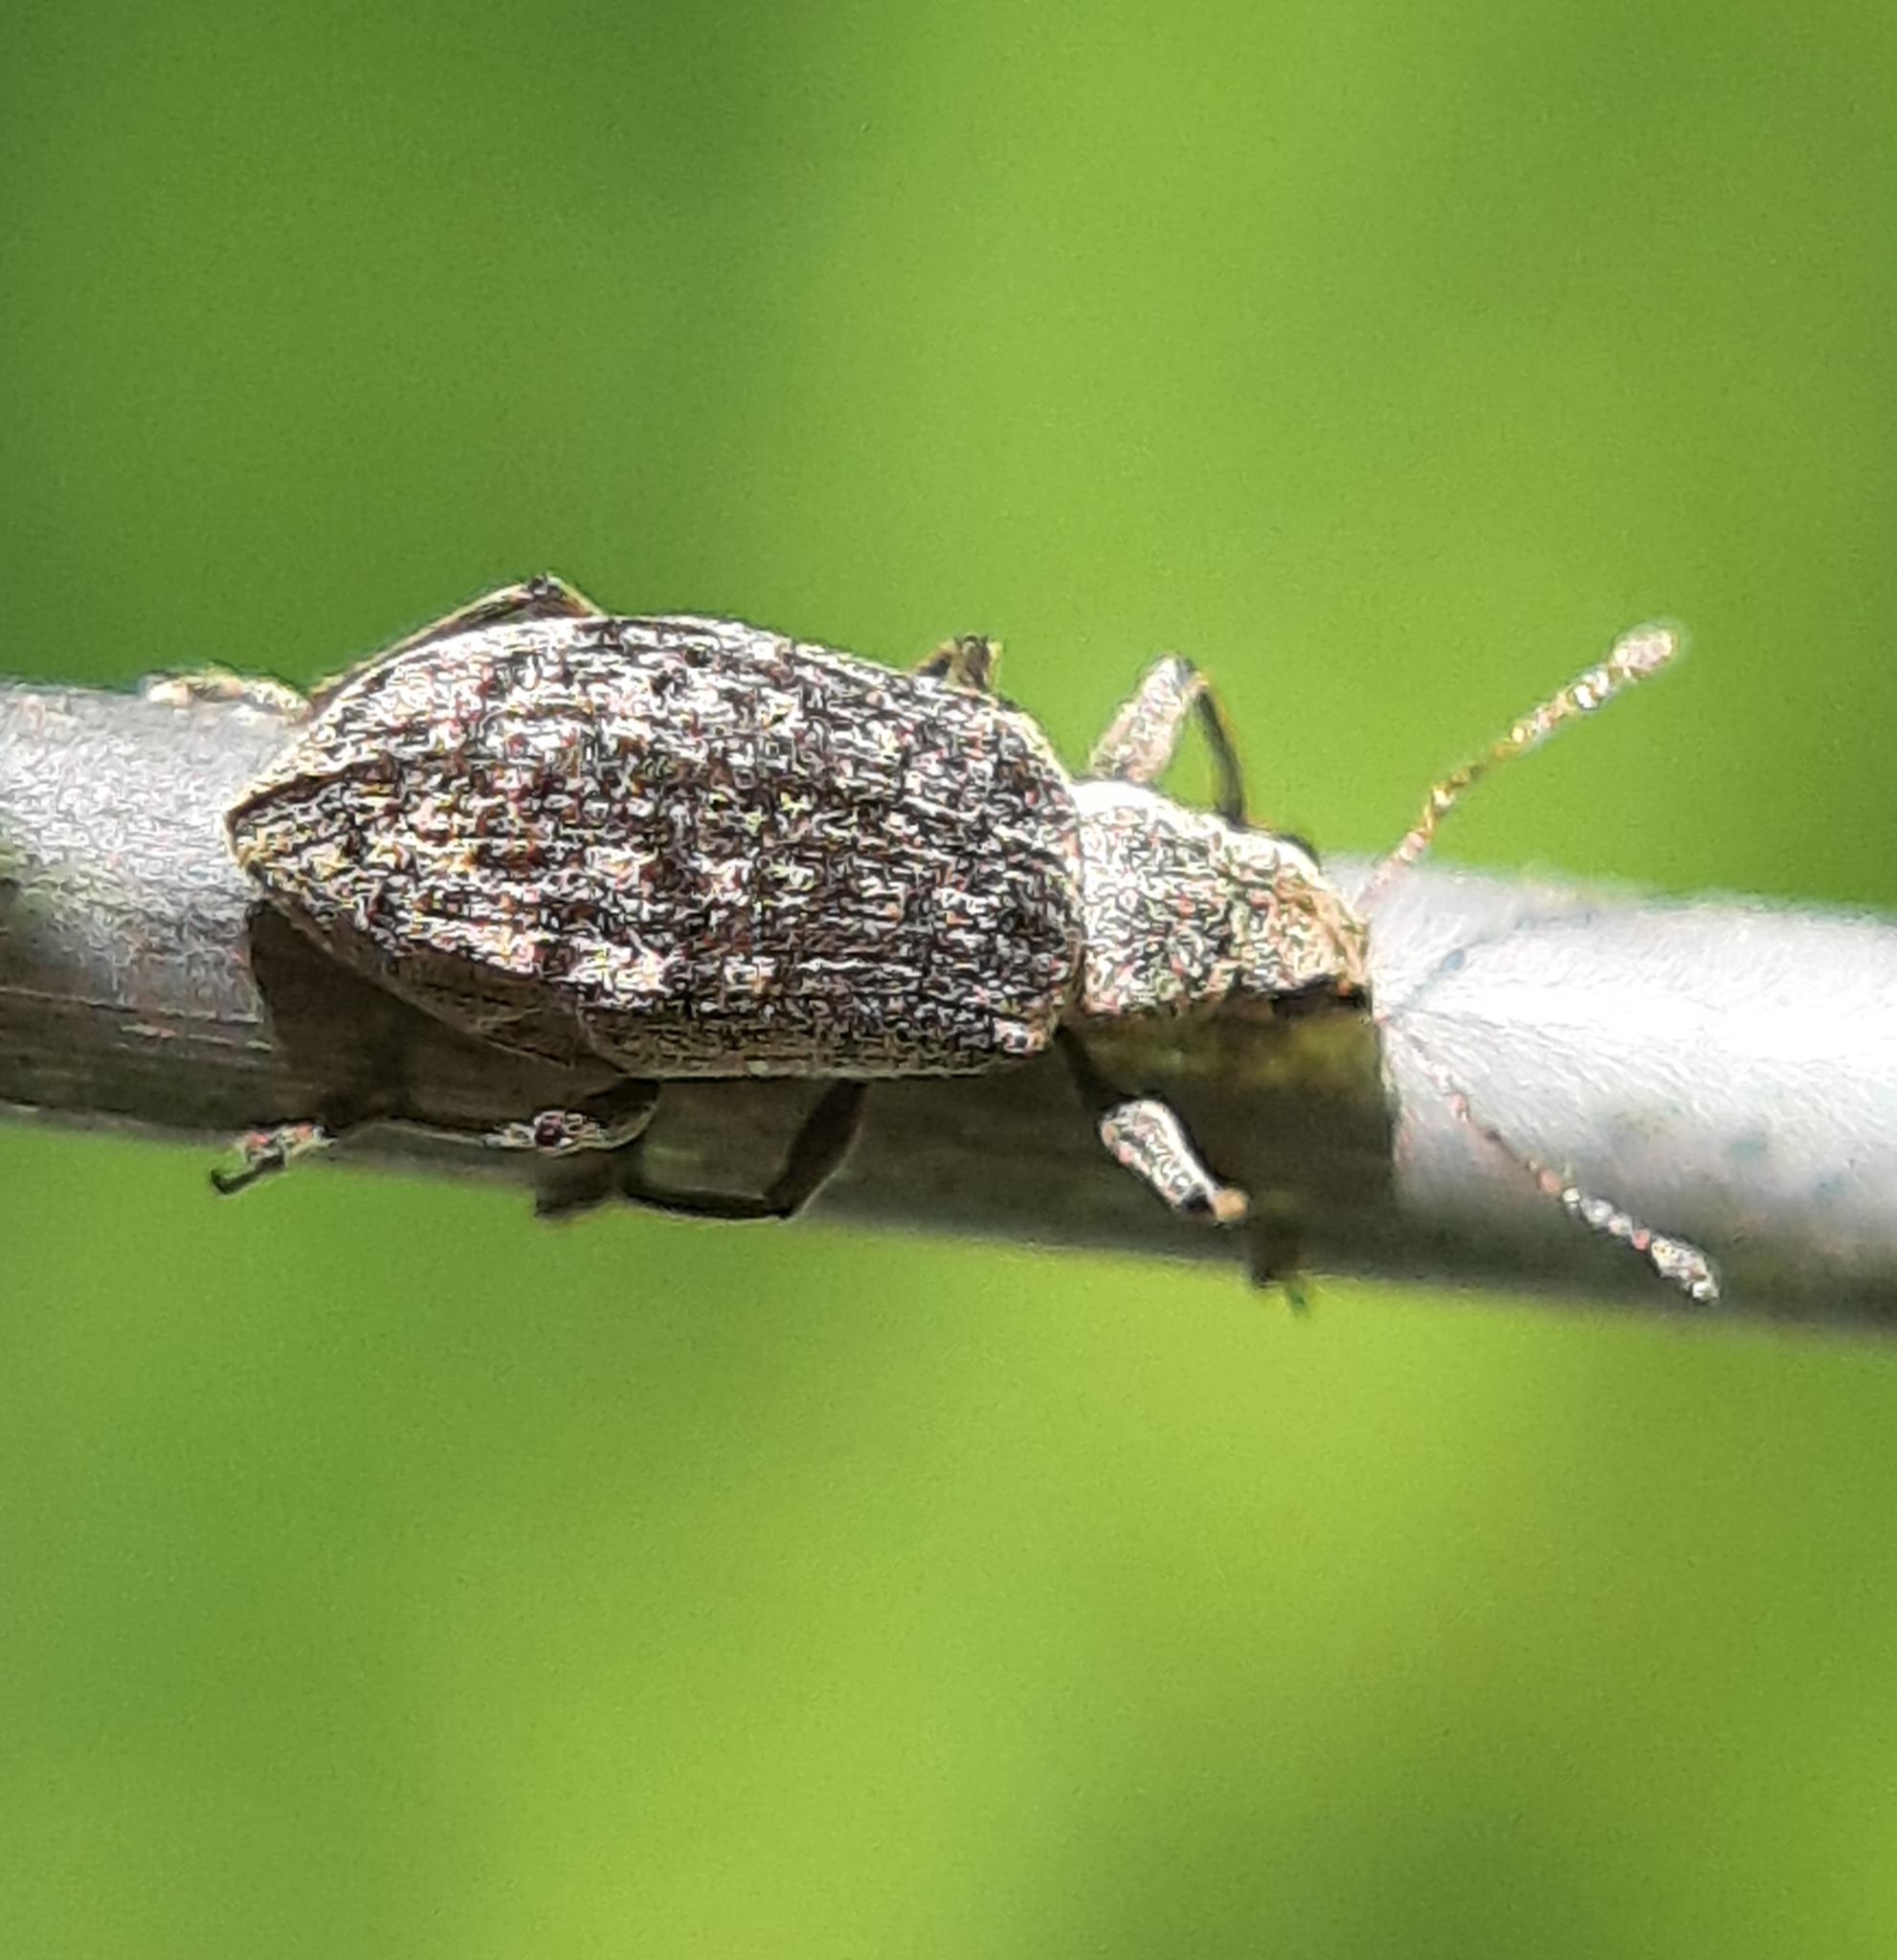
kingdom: Animalia
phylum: Arthropoda
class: Insecta
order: Coleoptera
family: Curculionidae
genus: Polydrusus
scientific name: Polydrusus cervinus
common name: Weevil
